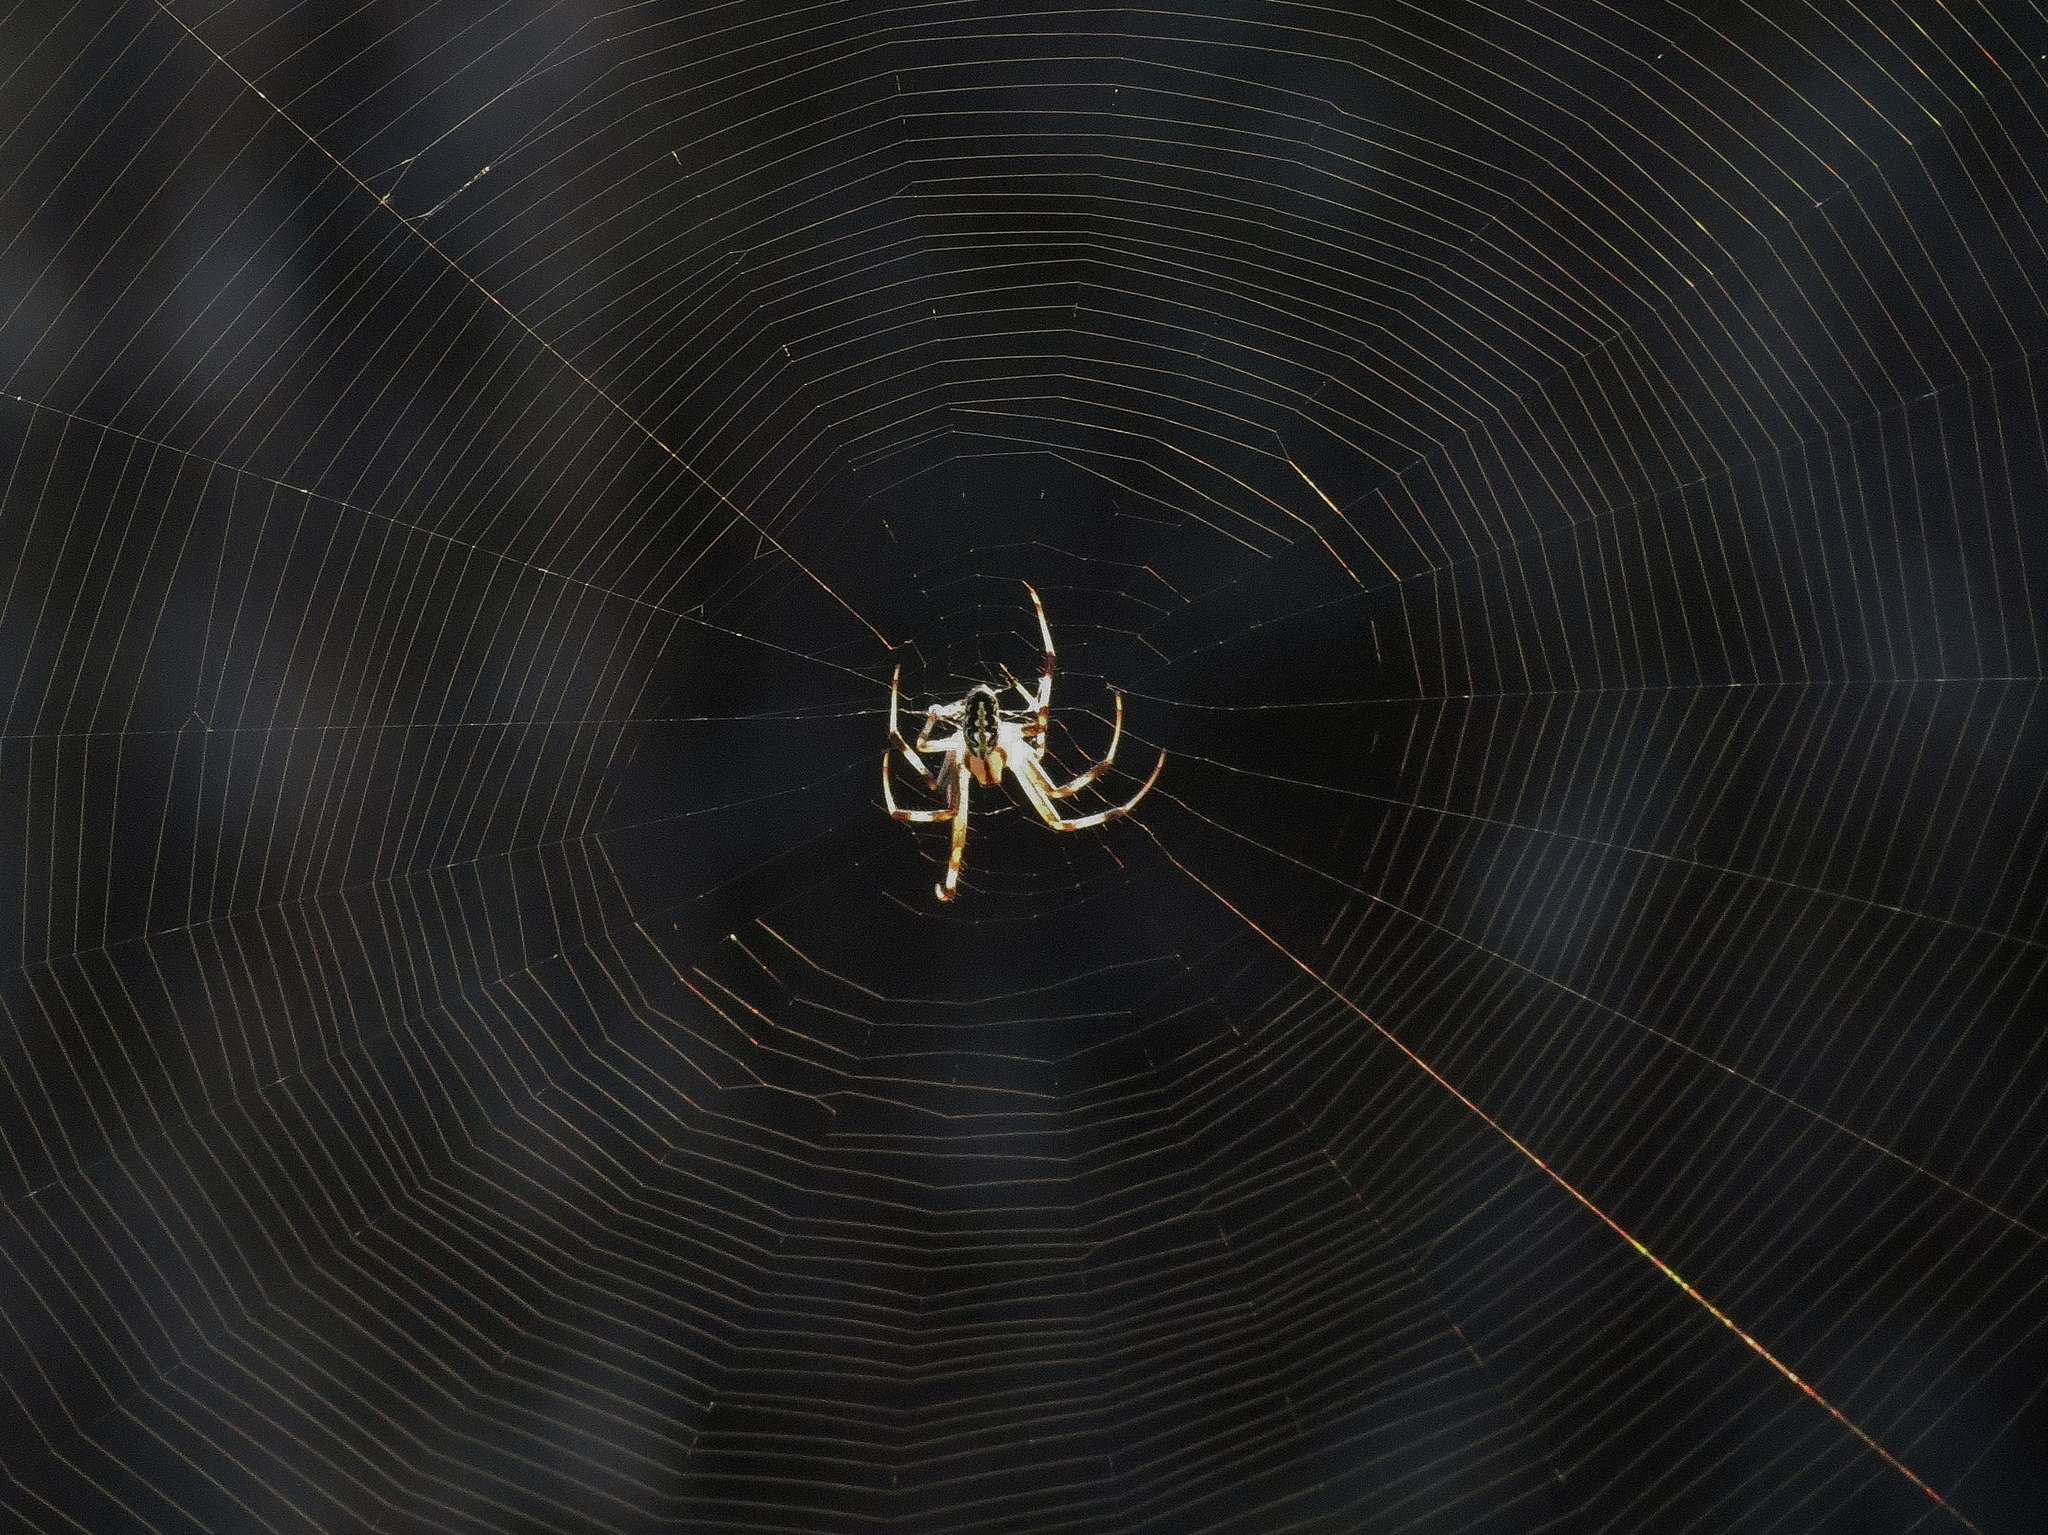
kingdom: Animalia
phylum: Arthropoda
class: Arachnida
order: Araneae
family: Araneidae
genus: Neoscona
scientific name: Neoscona oaxacensis
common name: Orb weavers
